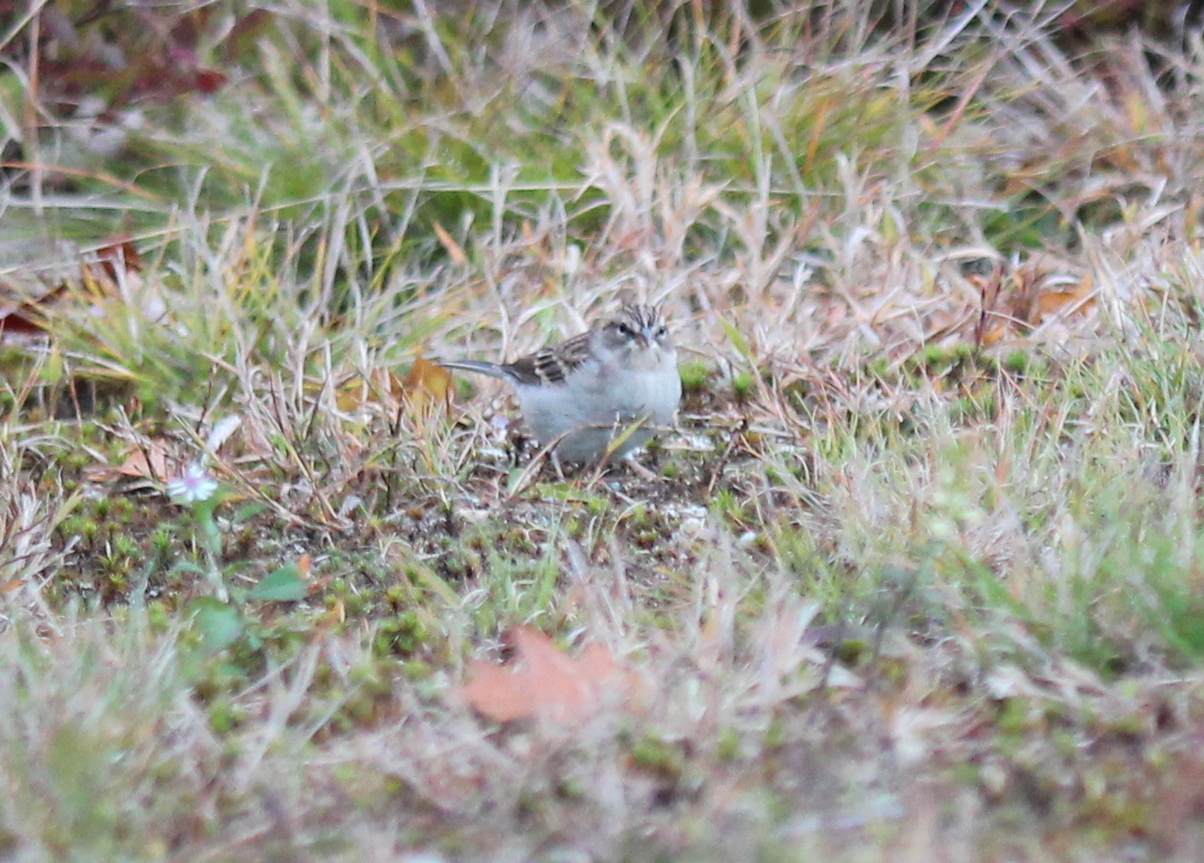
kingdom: Animalia
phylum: Chordata
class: Aves
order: Passeriformes
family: Passerellidae
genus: Spizella
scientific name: Spizella passerina
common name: Chipping sparrow
